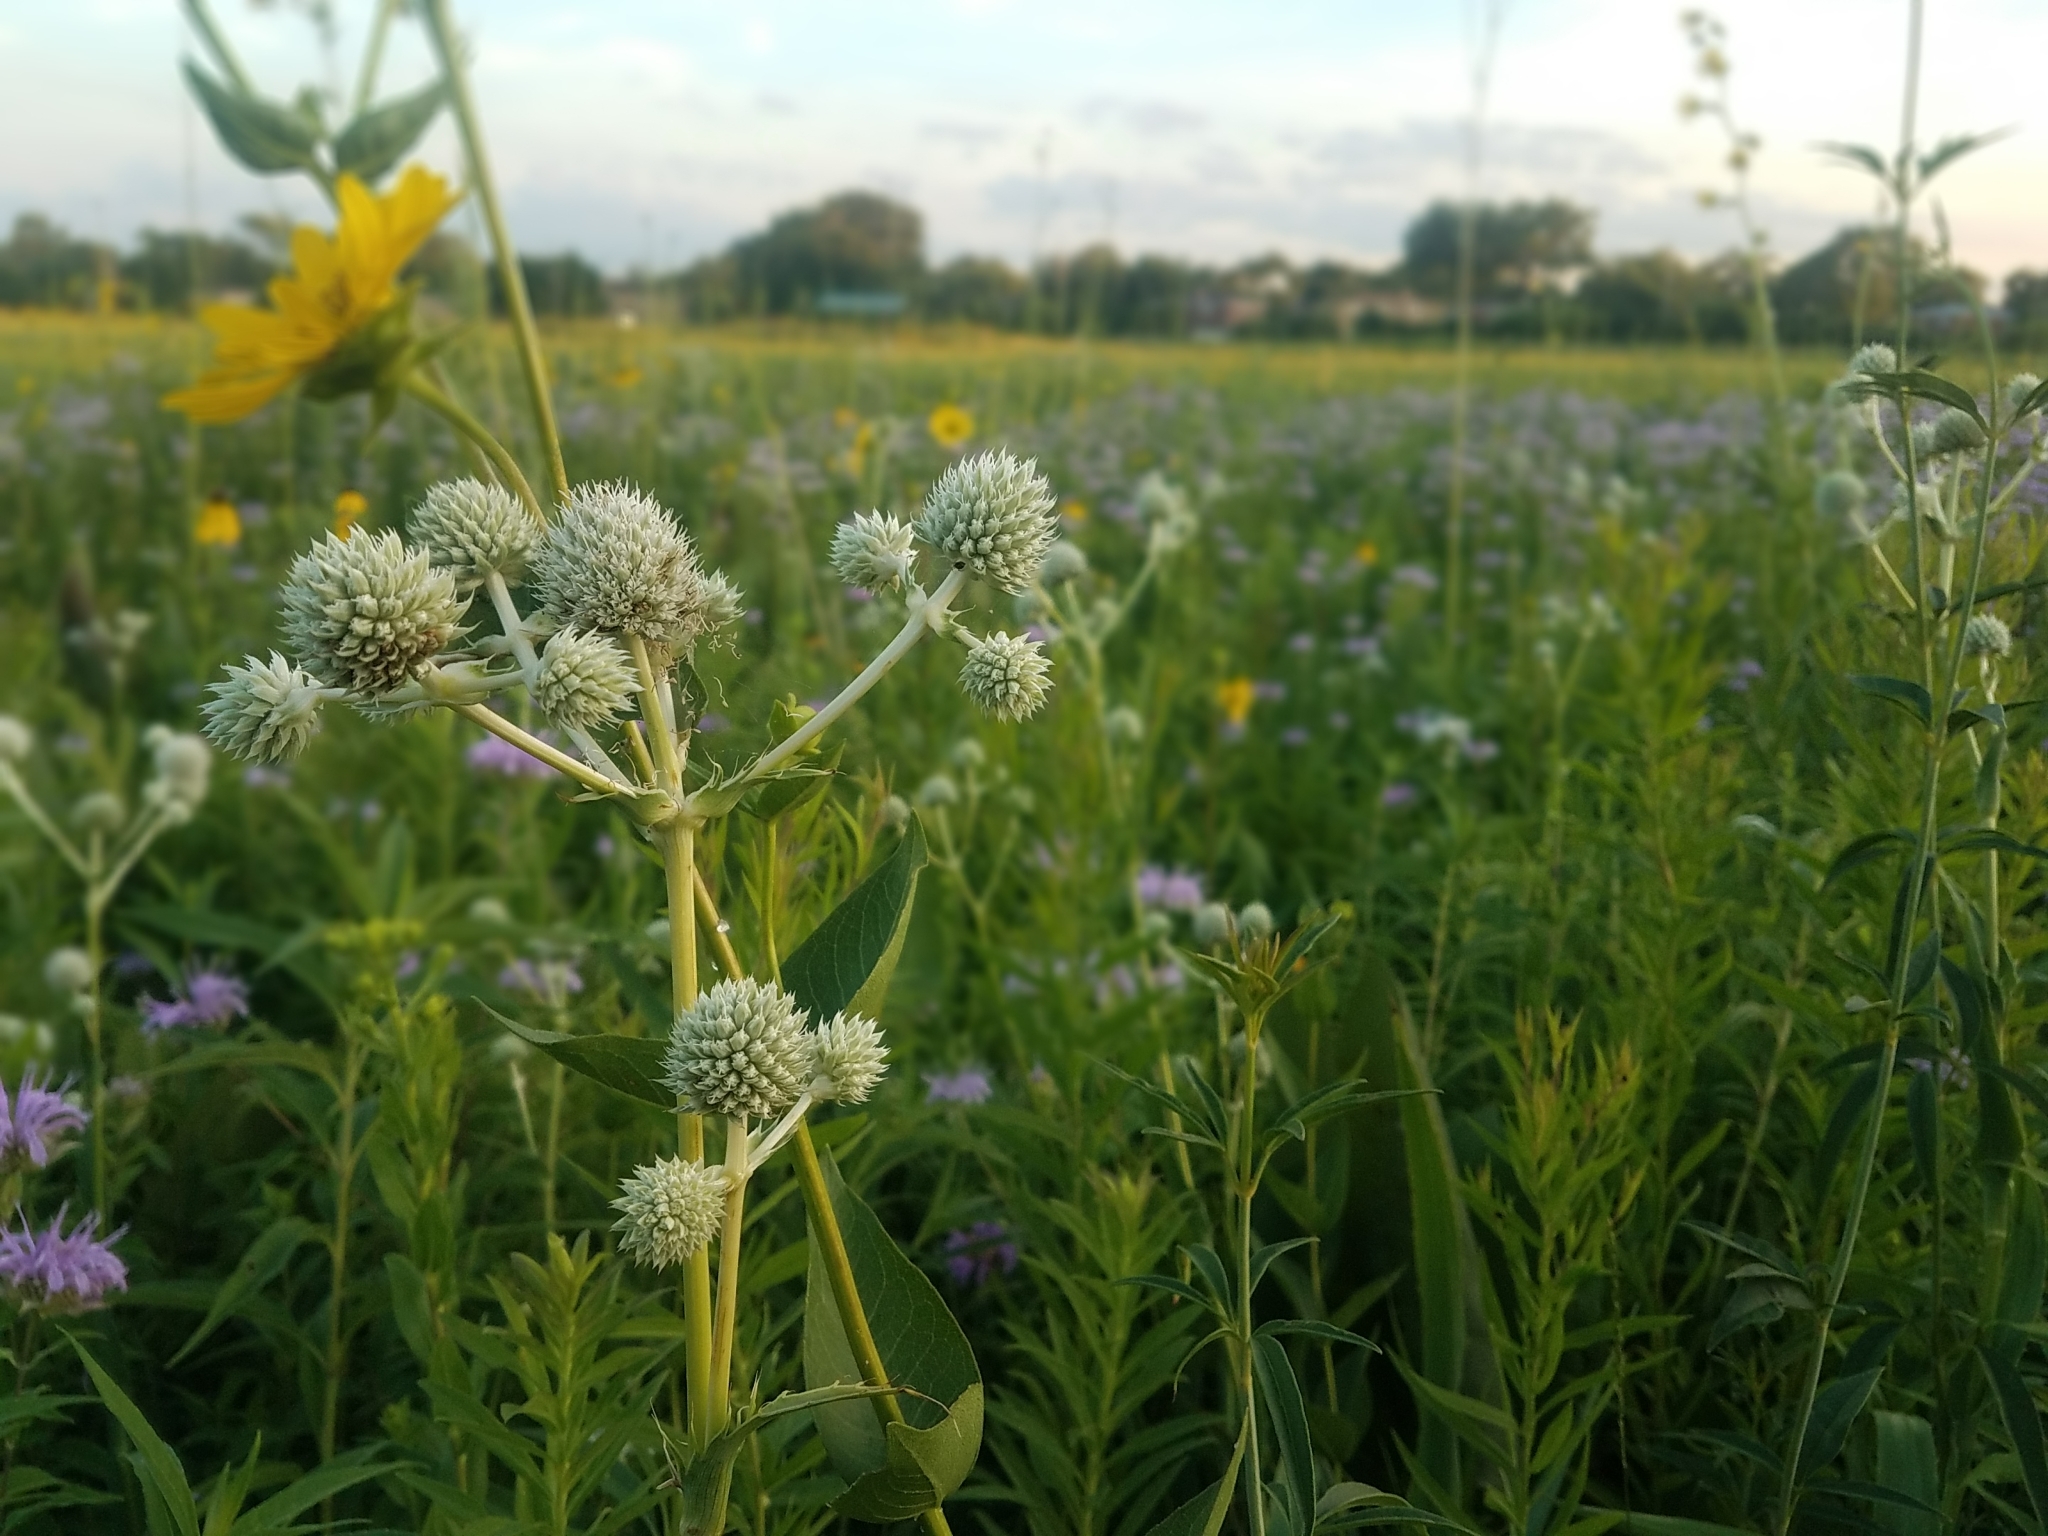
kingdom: Plantae
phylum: Tracheophyta
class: Magnoliopsida
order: Apiales
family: Apiaceae
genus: Eryngium
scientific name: Eryngium yuccifolium
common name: Button eryngo
